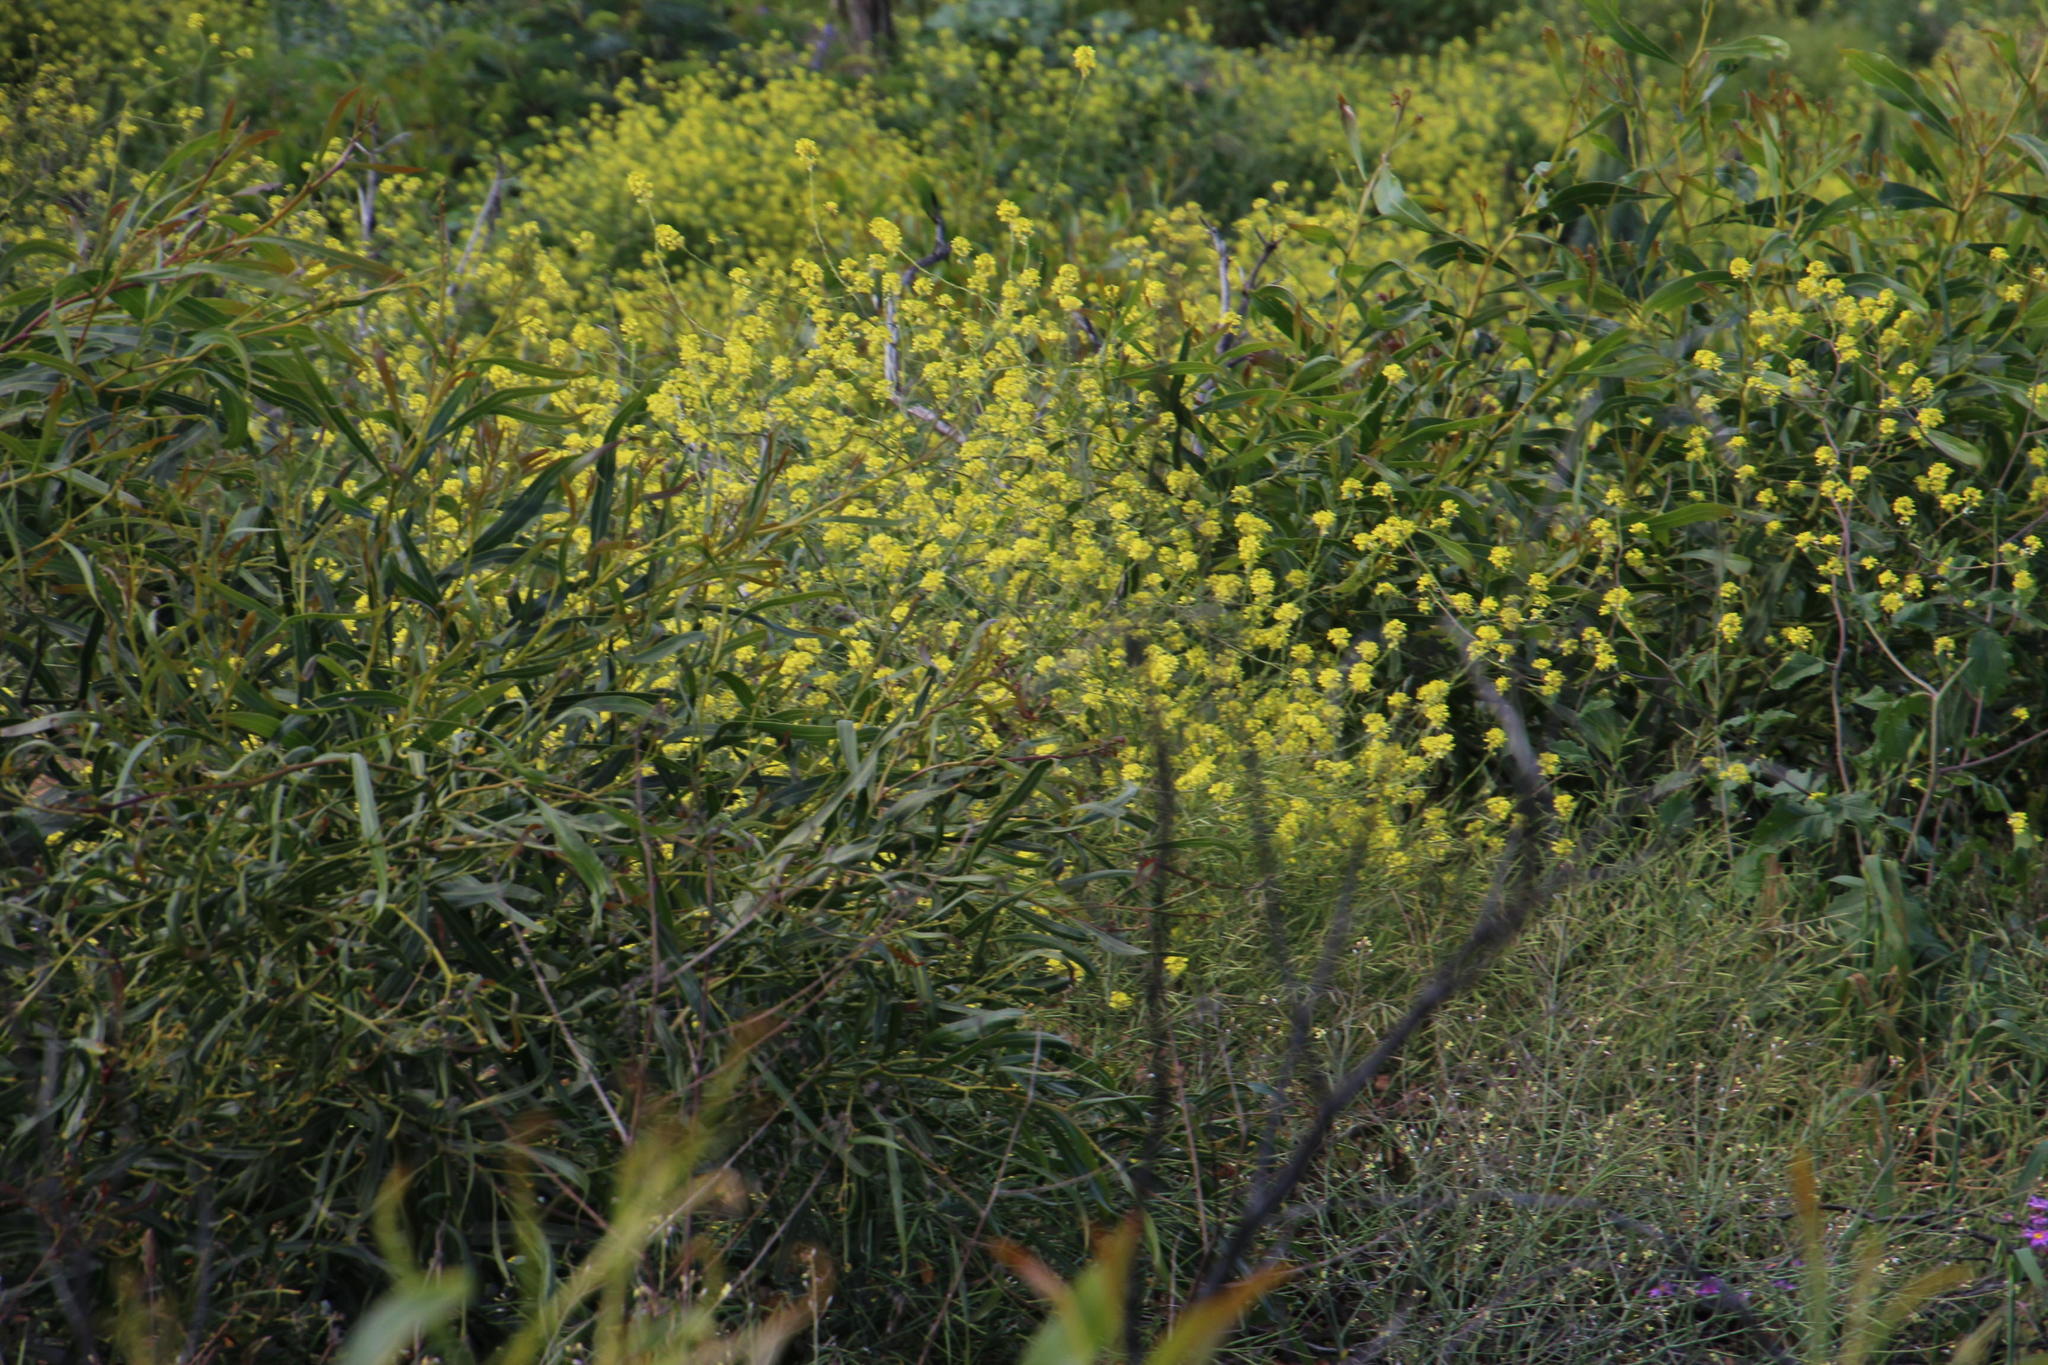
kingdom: Plantae
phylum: Tracheophyta
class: Magnoliopsida
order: Brassicales
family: Brassicaceae
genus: Rapistrum
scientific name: Rapistrum rugosum
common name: Annual bastardcabbage
